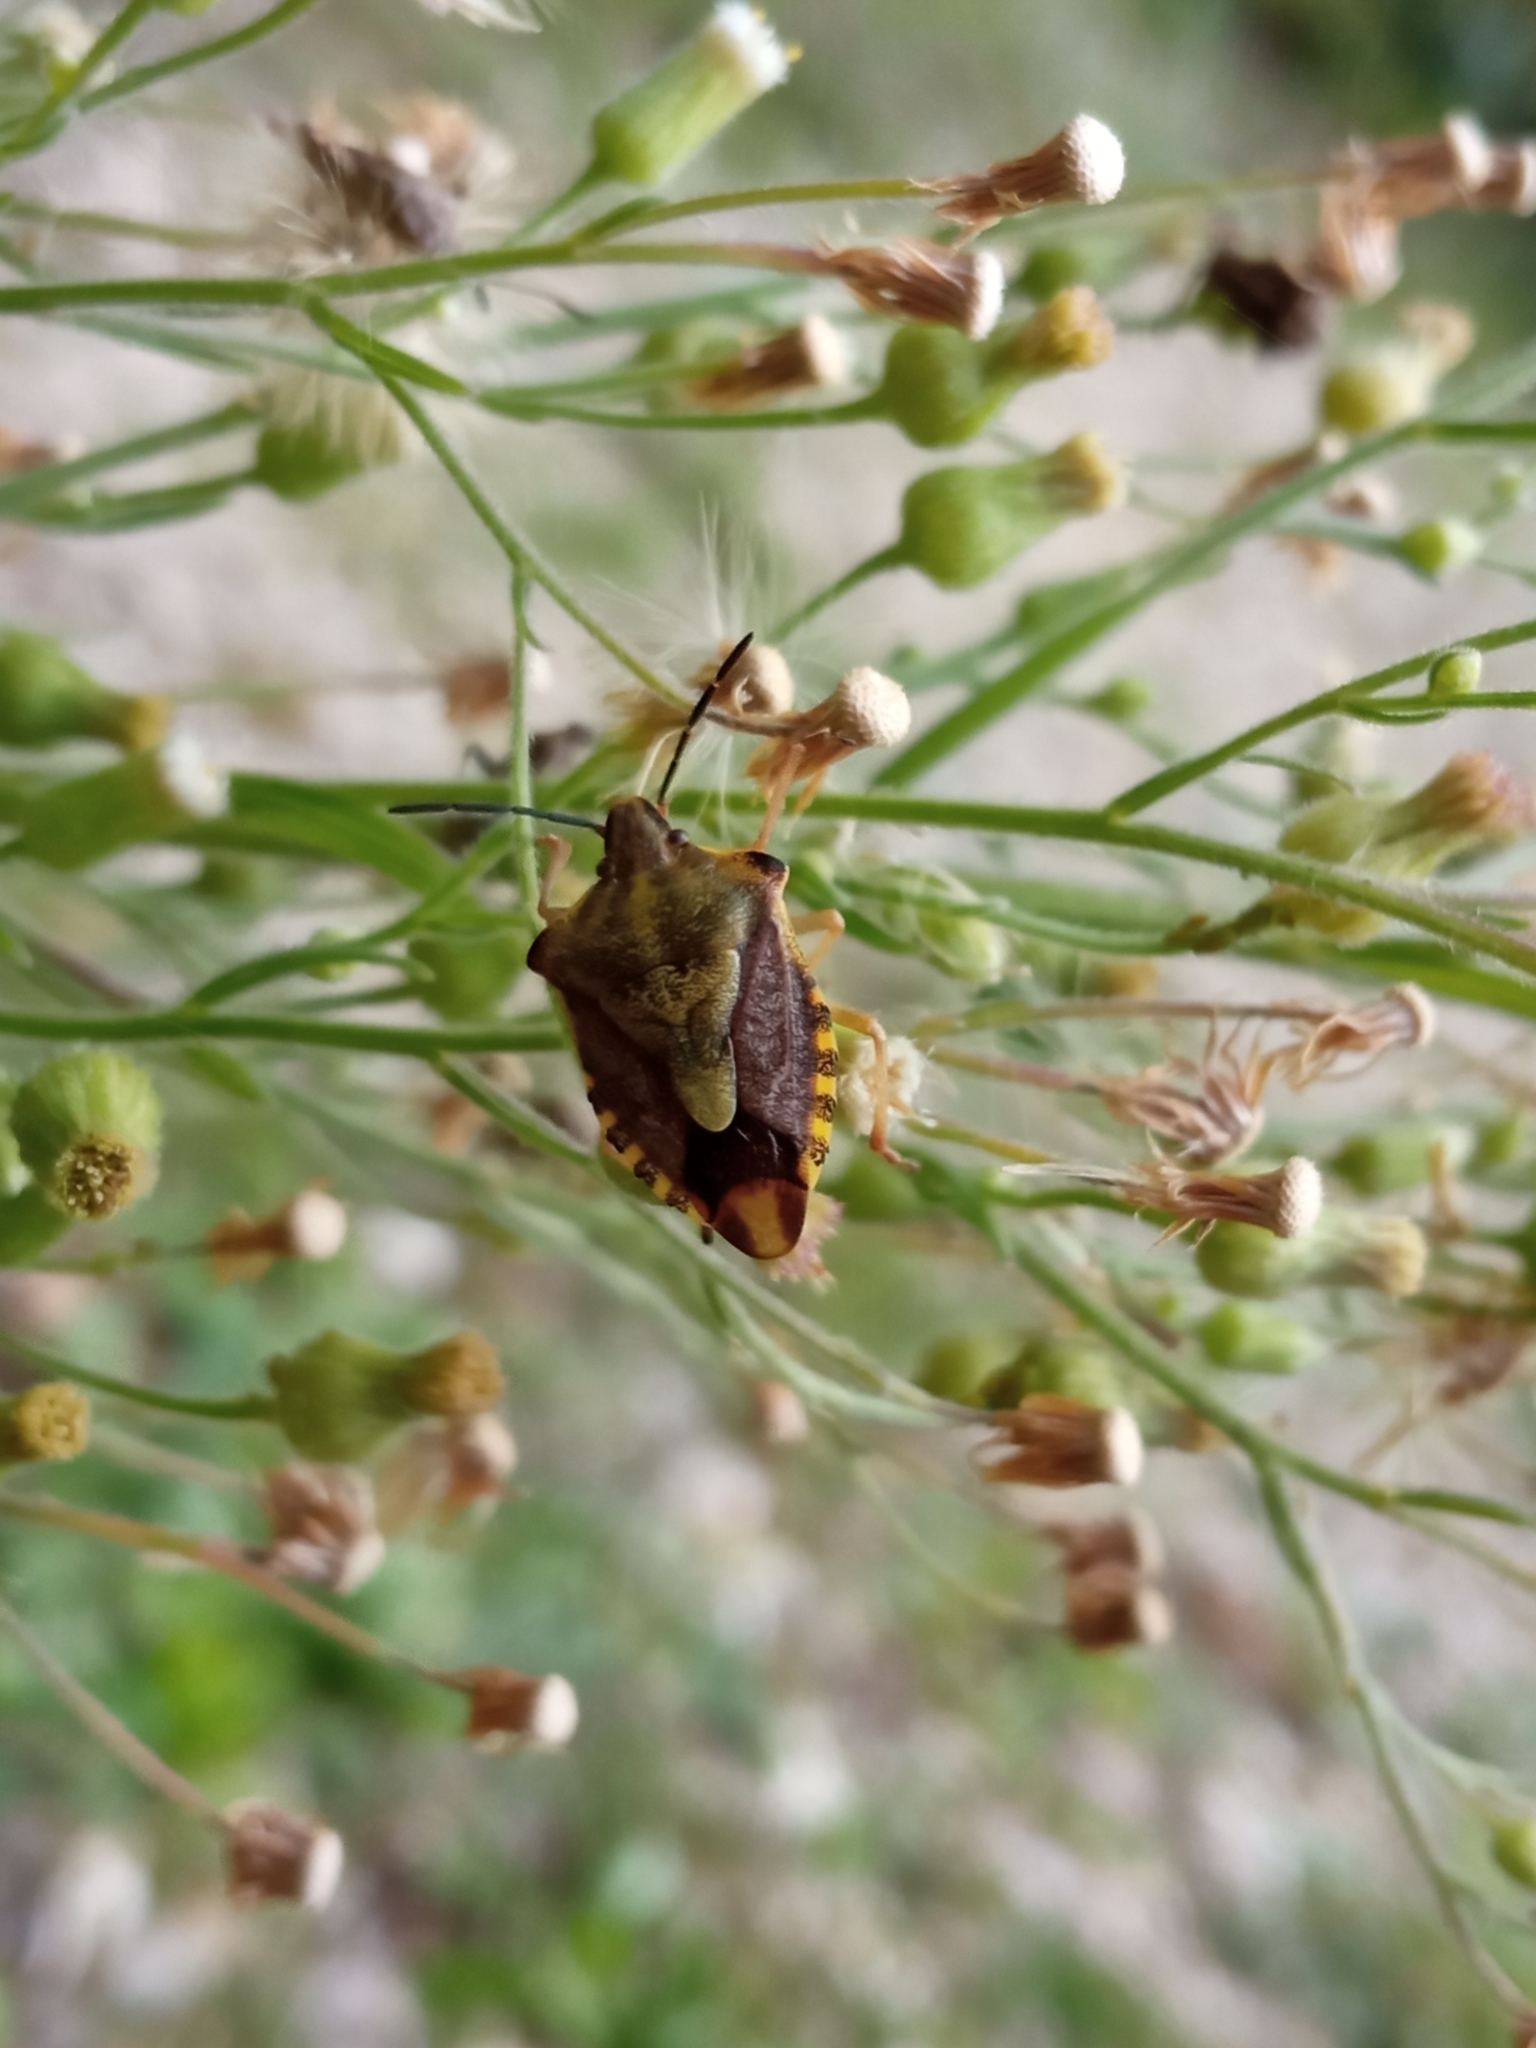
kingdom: Animalia
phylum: Arthropoda
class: Insecta
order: Hemiptera
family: Pentatomidae
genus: Carpocoris
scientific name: Carpocoris purpureipennis
